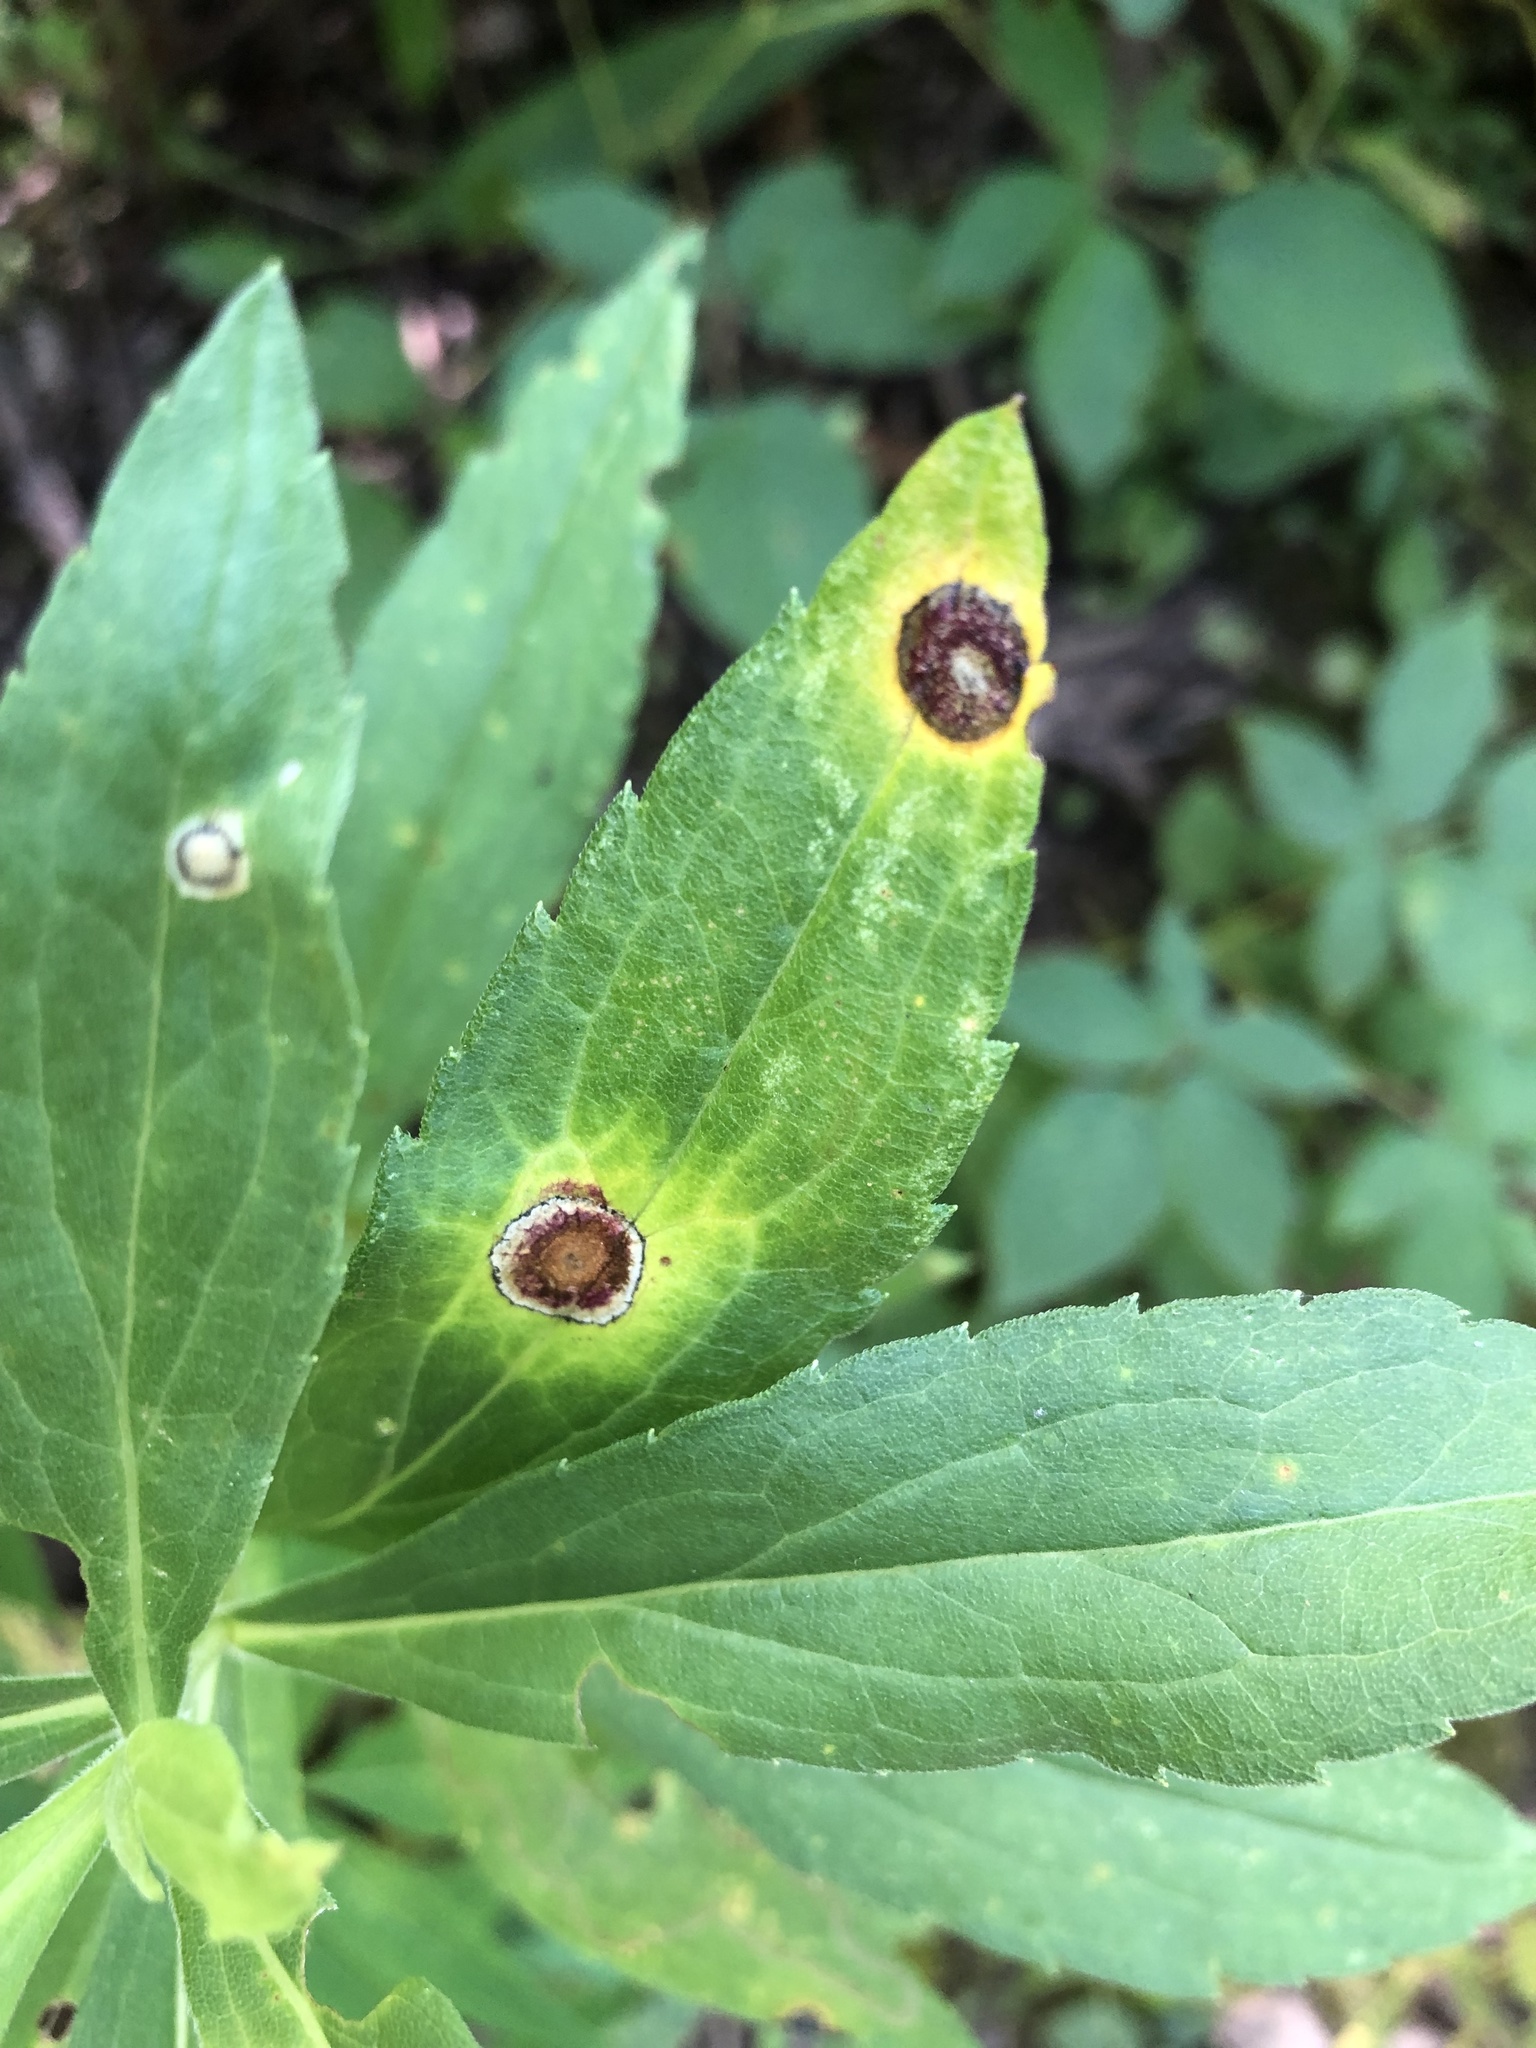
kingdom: Animalia
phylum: Arthropoda
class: Insecta
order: Diptera
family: Cecidomyiidae
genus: Asteromyia
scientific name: Asteromyia carbonifera
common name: Carbonifera goldenrod gall midge
